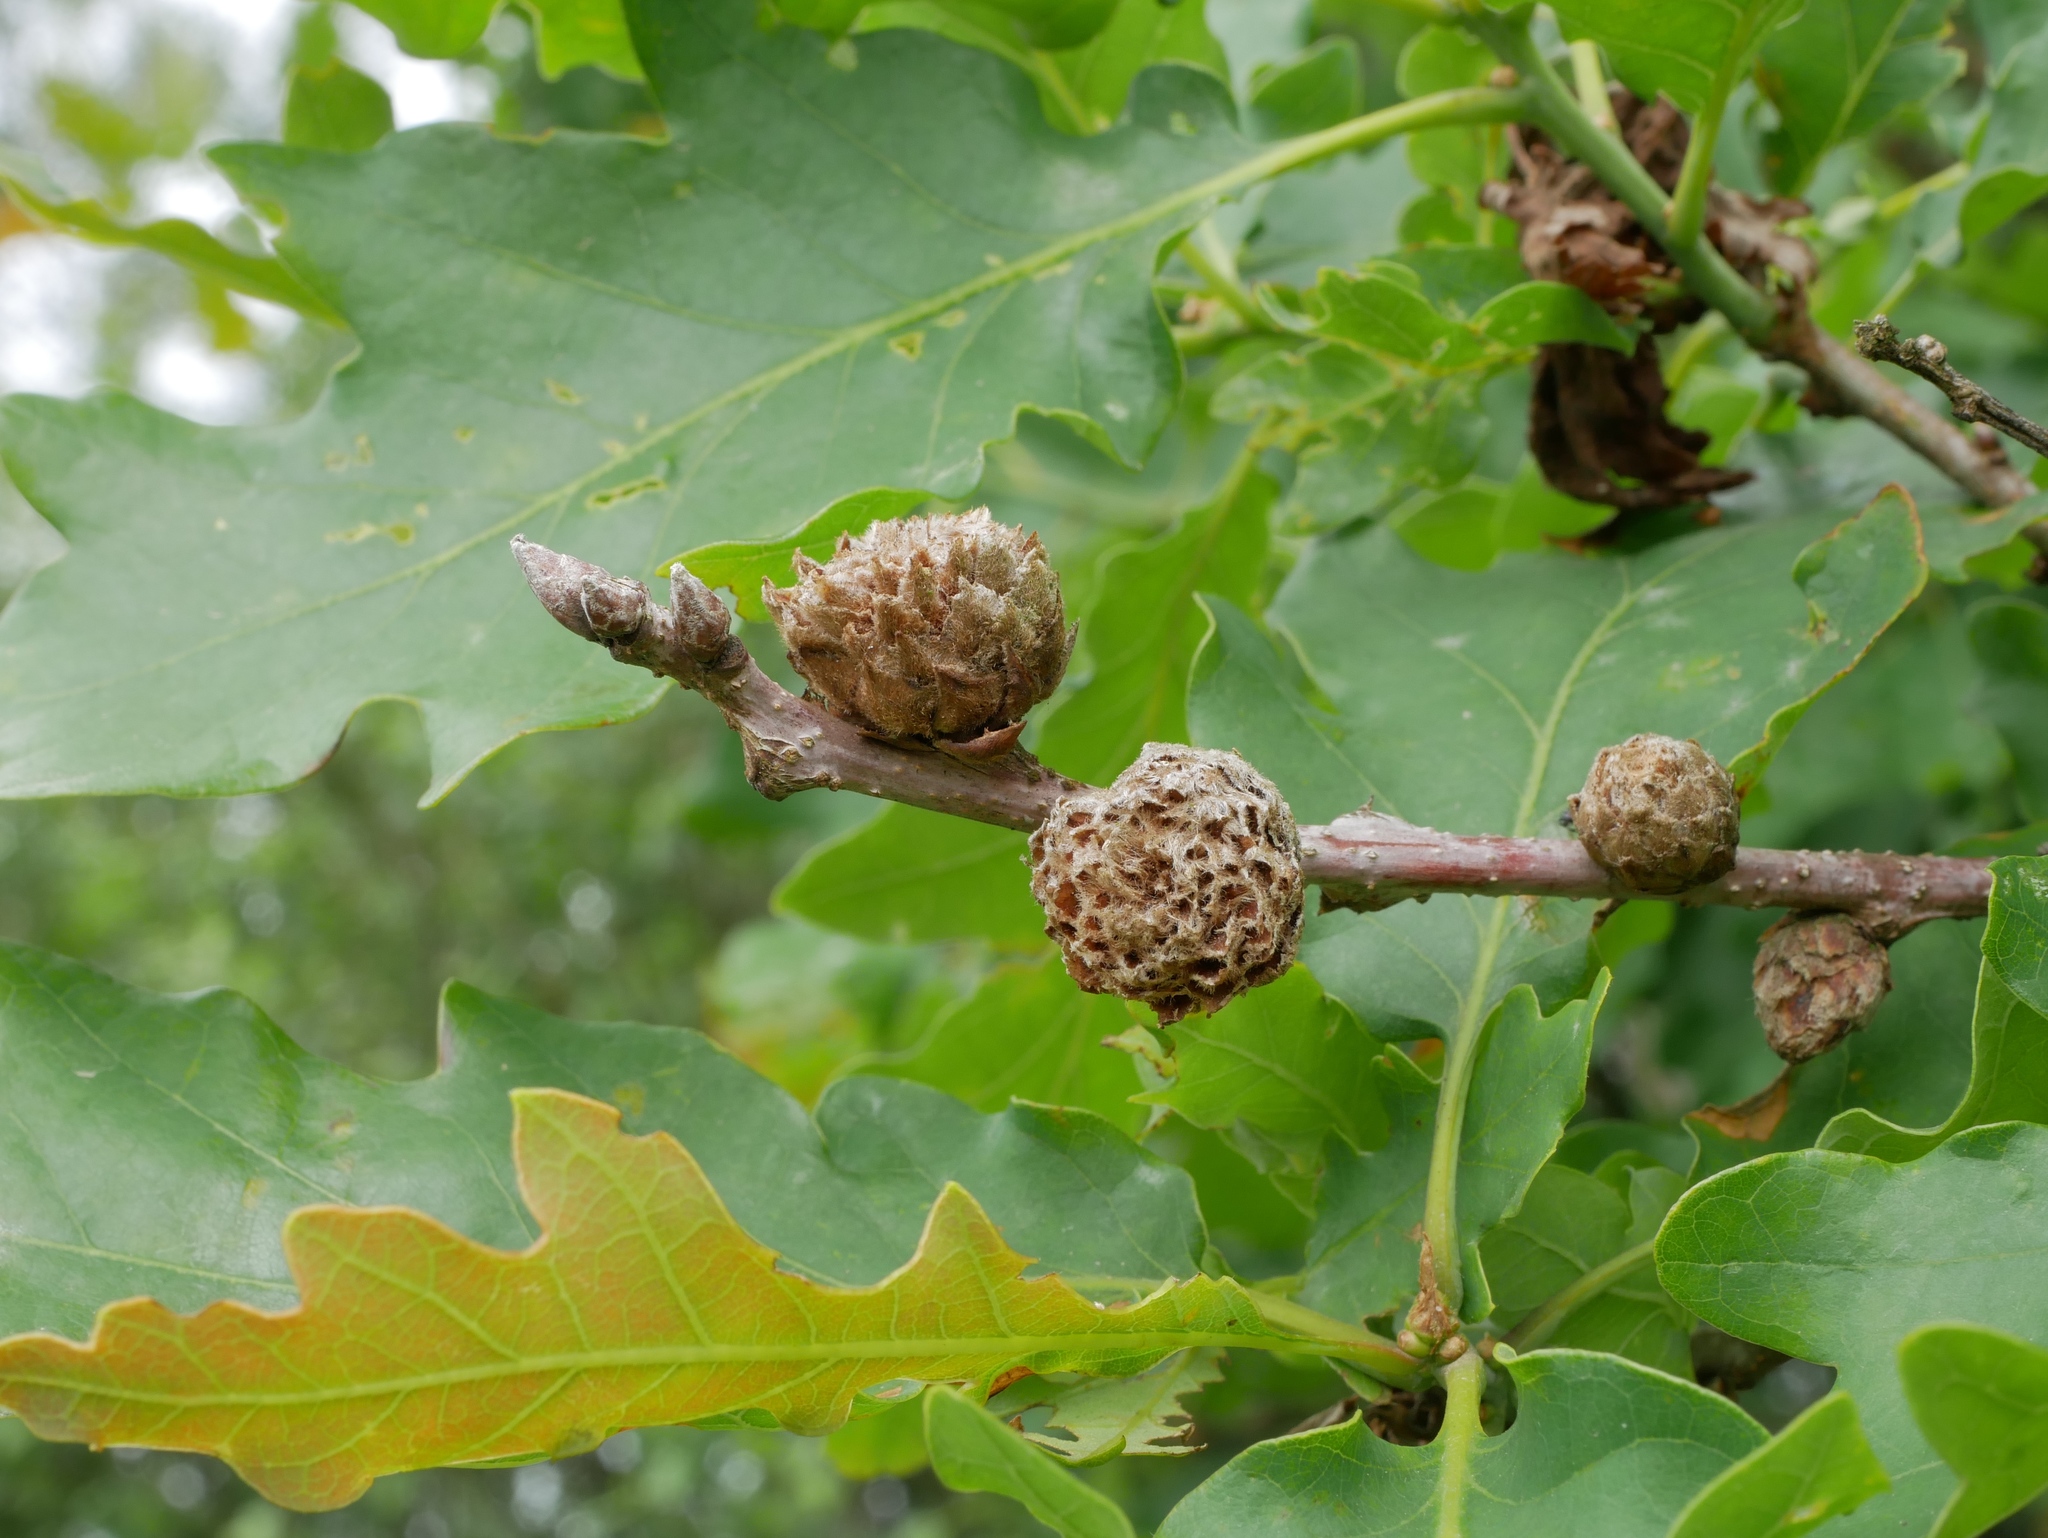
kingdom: Animalia
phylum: Arthropoda
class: Insecta
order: Hymenoptera
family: Cynipidae
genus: Andricus
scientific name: Andricus foecundatrix
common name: Artichoke gall
